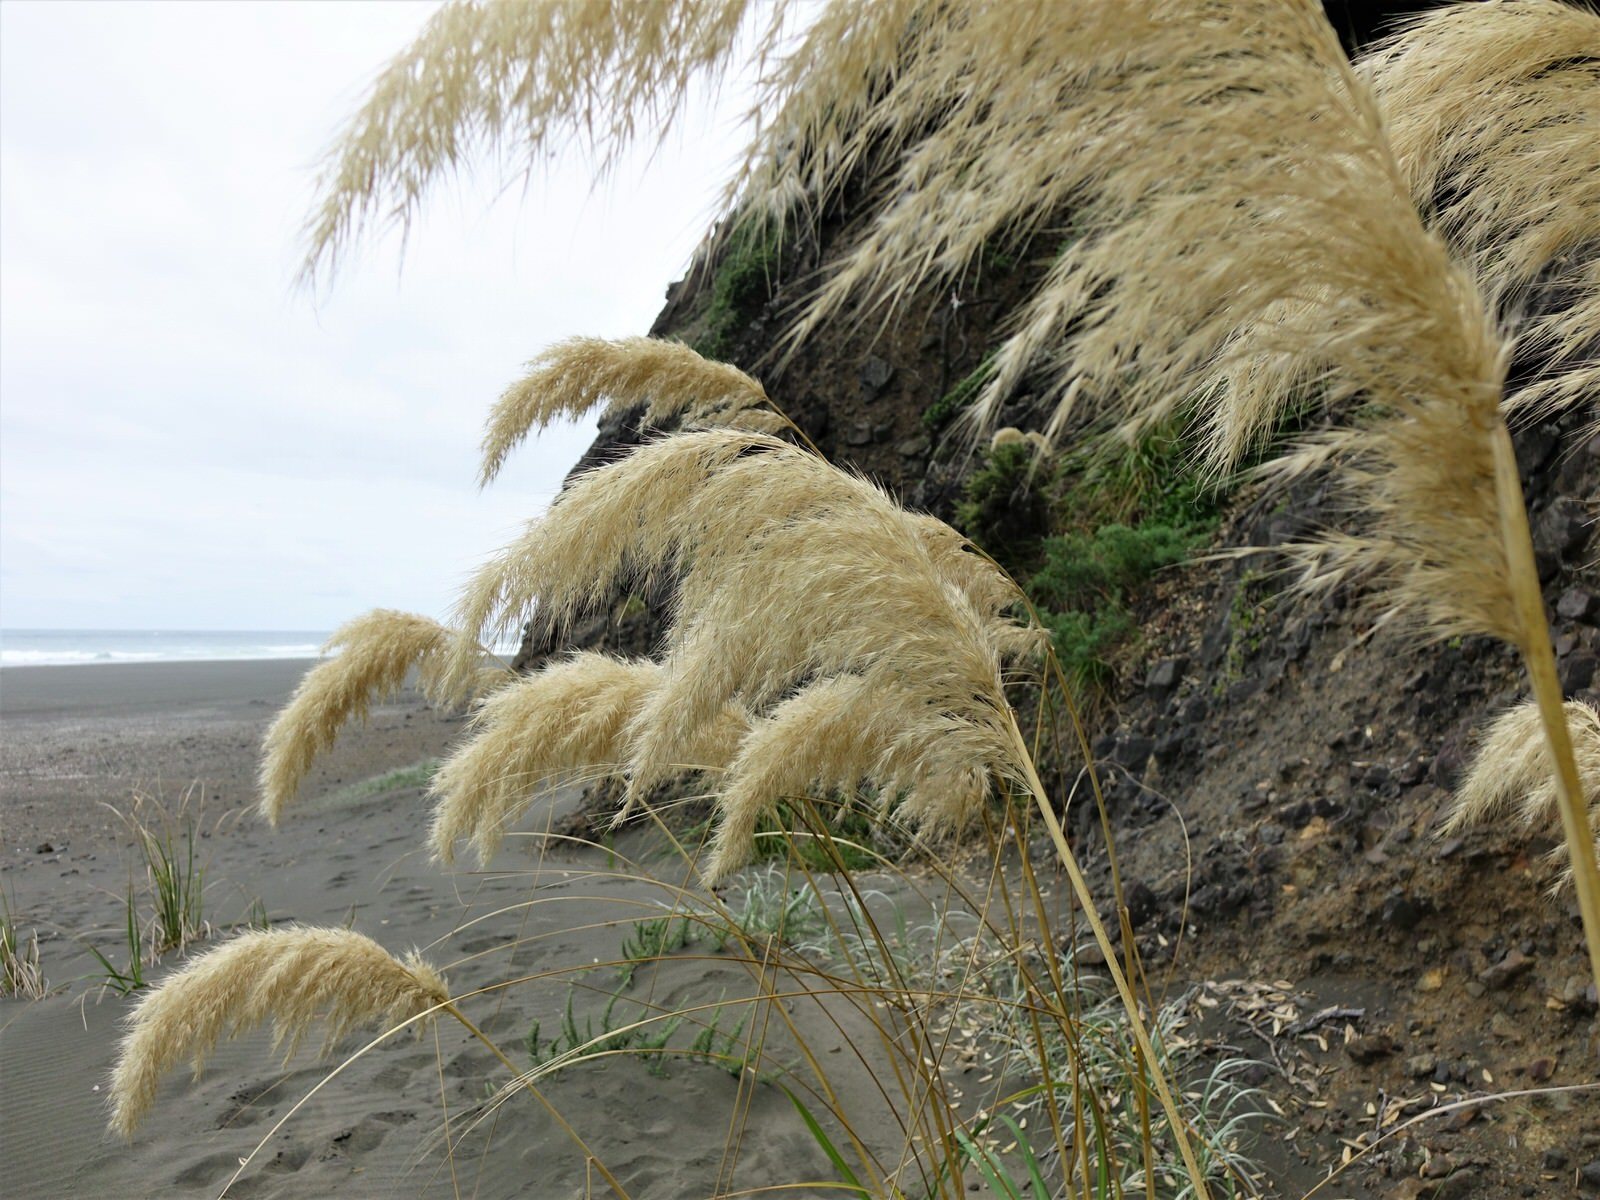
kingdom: Plantae
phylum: Tracheophyta
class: Liliopsida
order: Poales
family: Poaceae
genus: Austroderia
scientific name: Austroderia splendens
